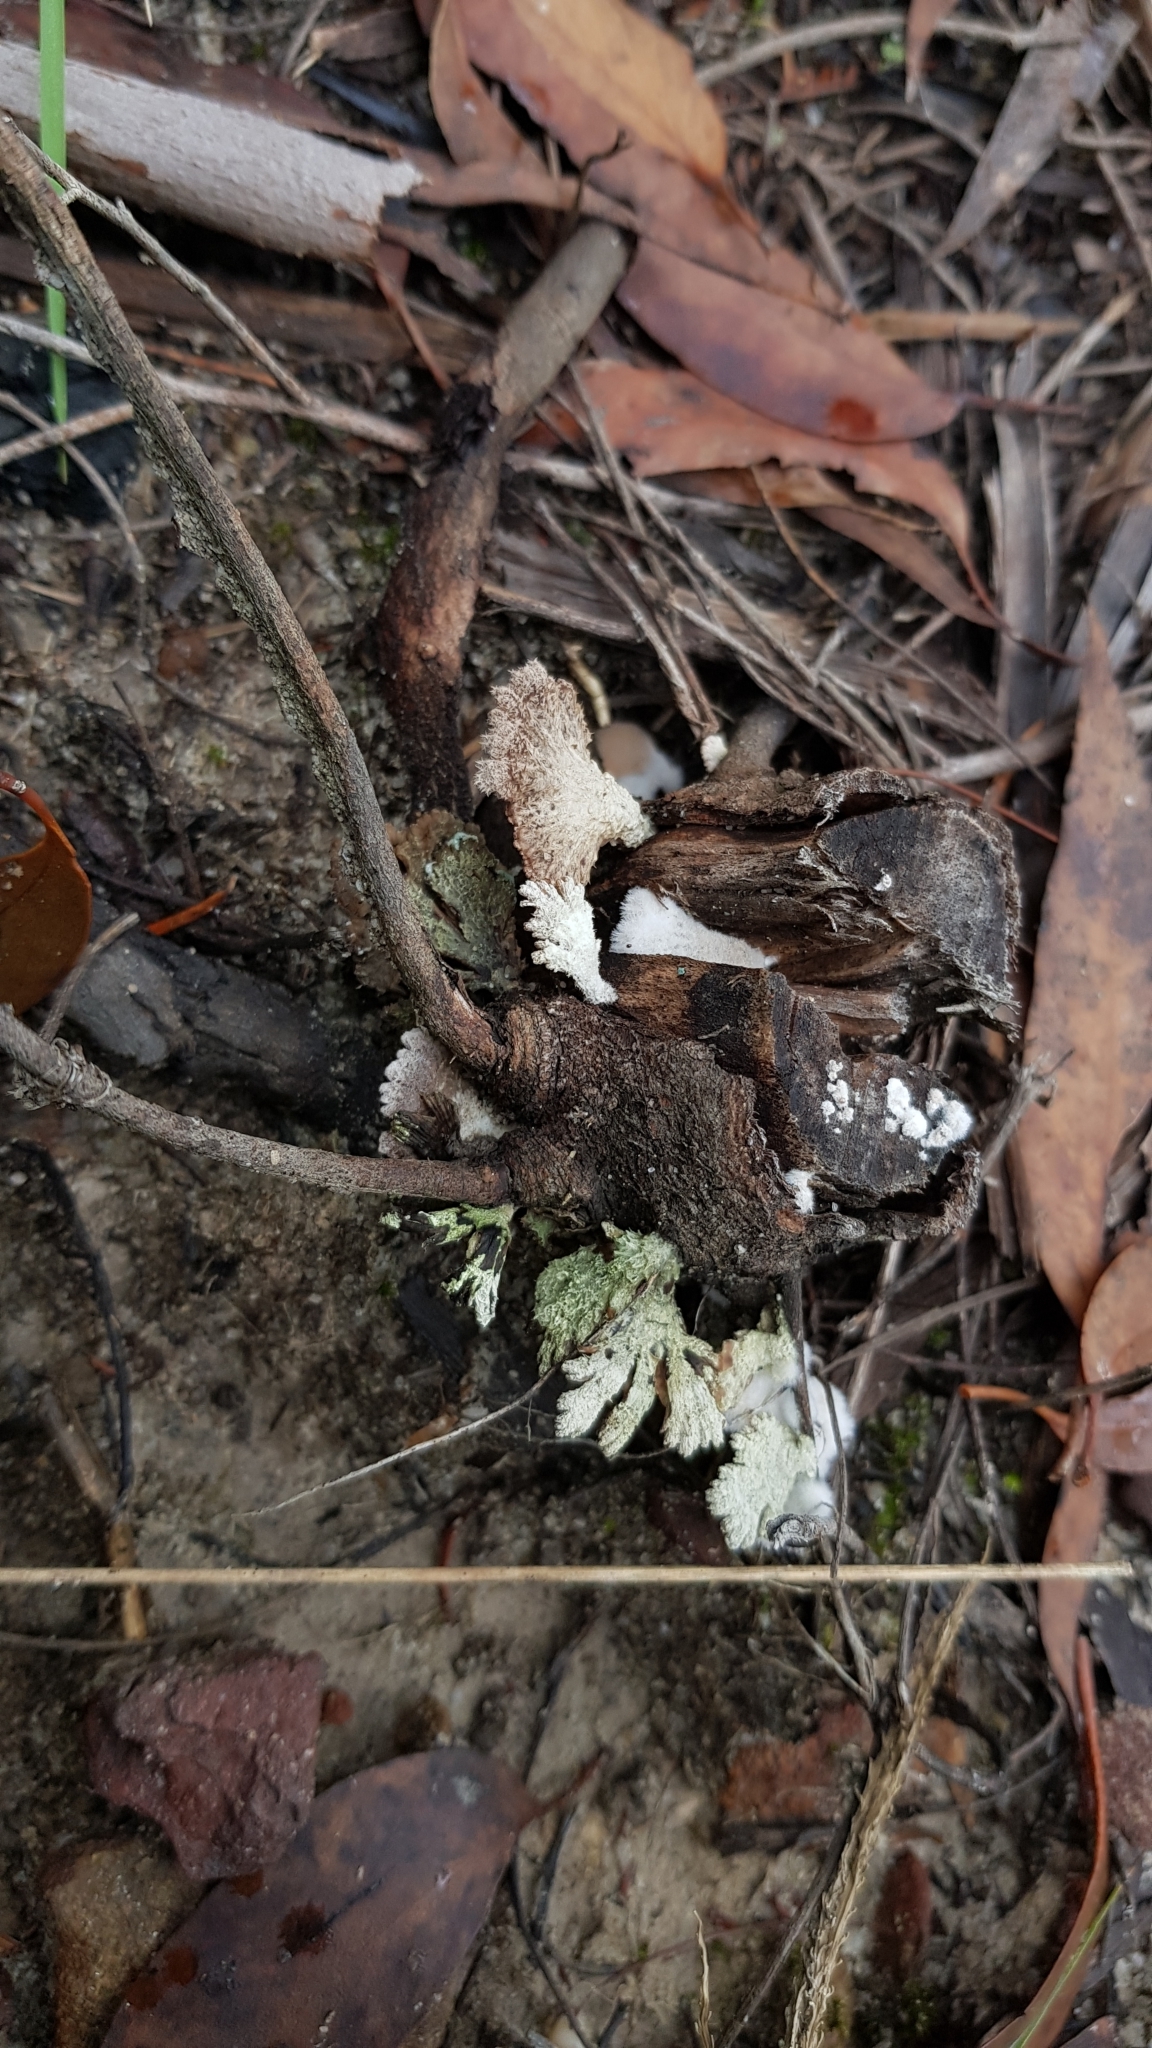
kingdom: Fungi
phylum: Basidiomycota
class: Agaricomycetes
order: Agaricales
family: Schizophyllaceae
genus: Schizophyllum
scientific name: Schizophyllum commune
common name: Common porecrust
